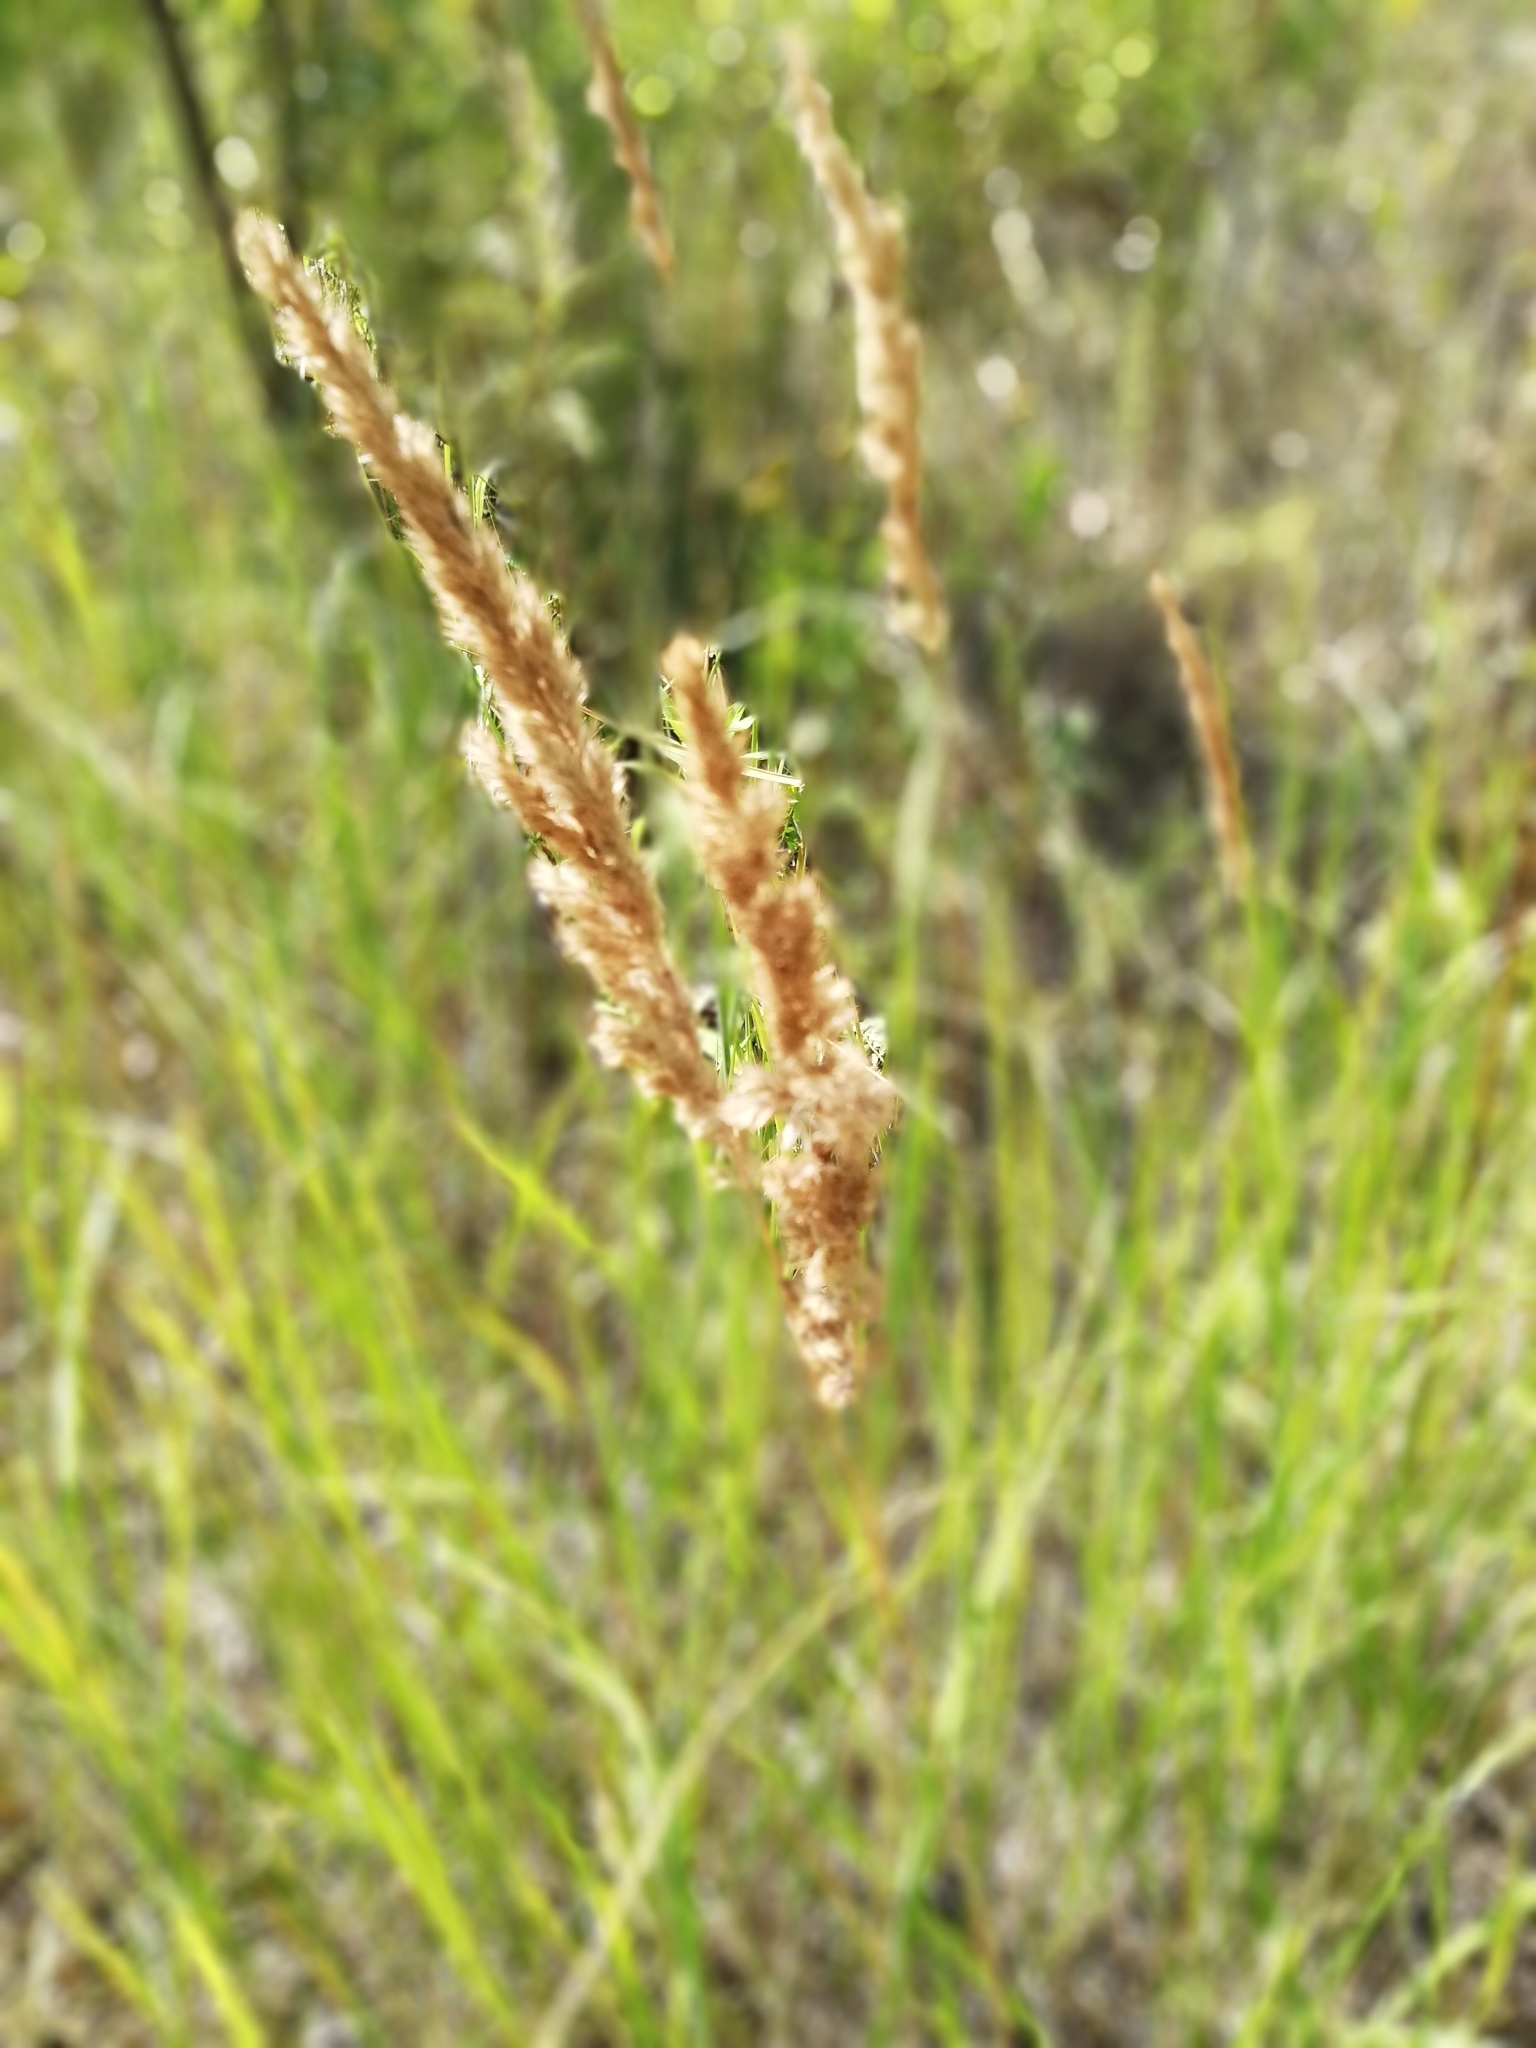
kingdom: Plantae
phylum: Tracheophyta
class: Liliopsida
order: Poales
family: Poaceae
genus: Calamagrostis
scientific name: Calamagrostis epigejos
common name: Wood small-reed
